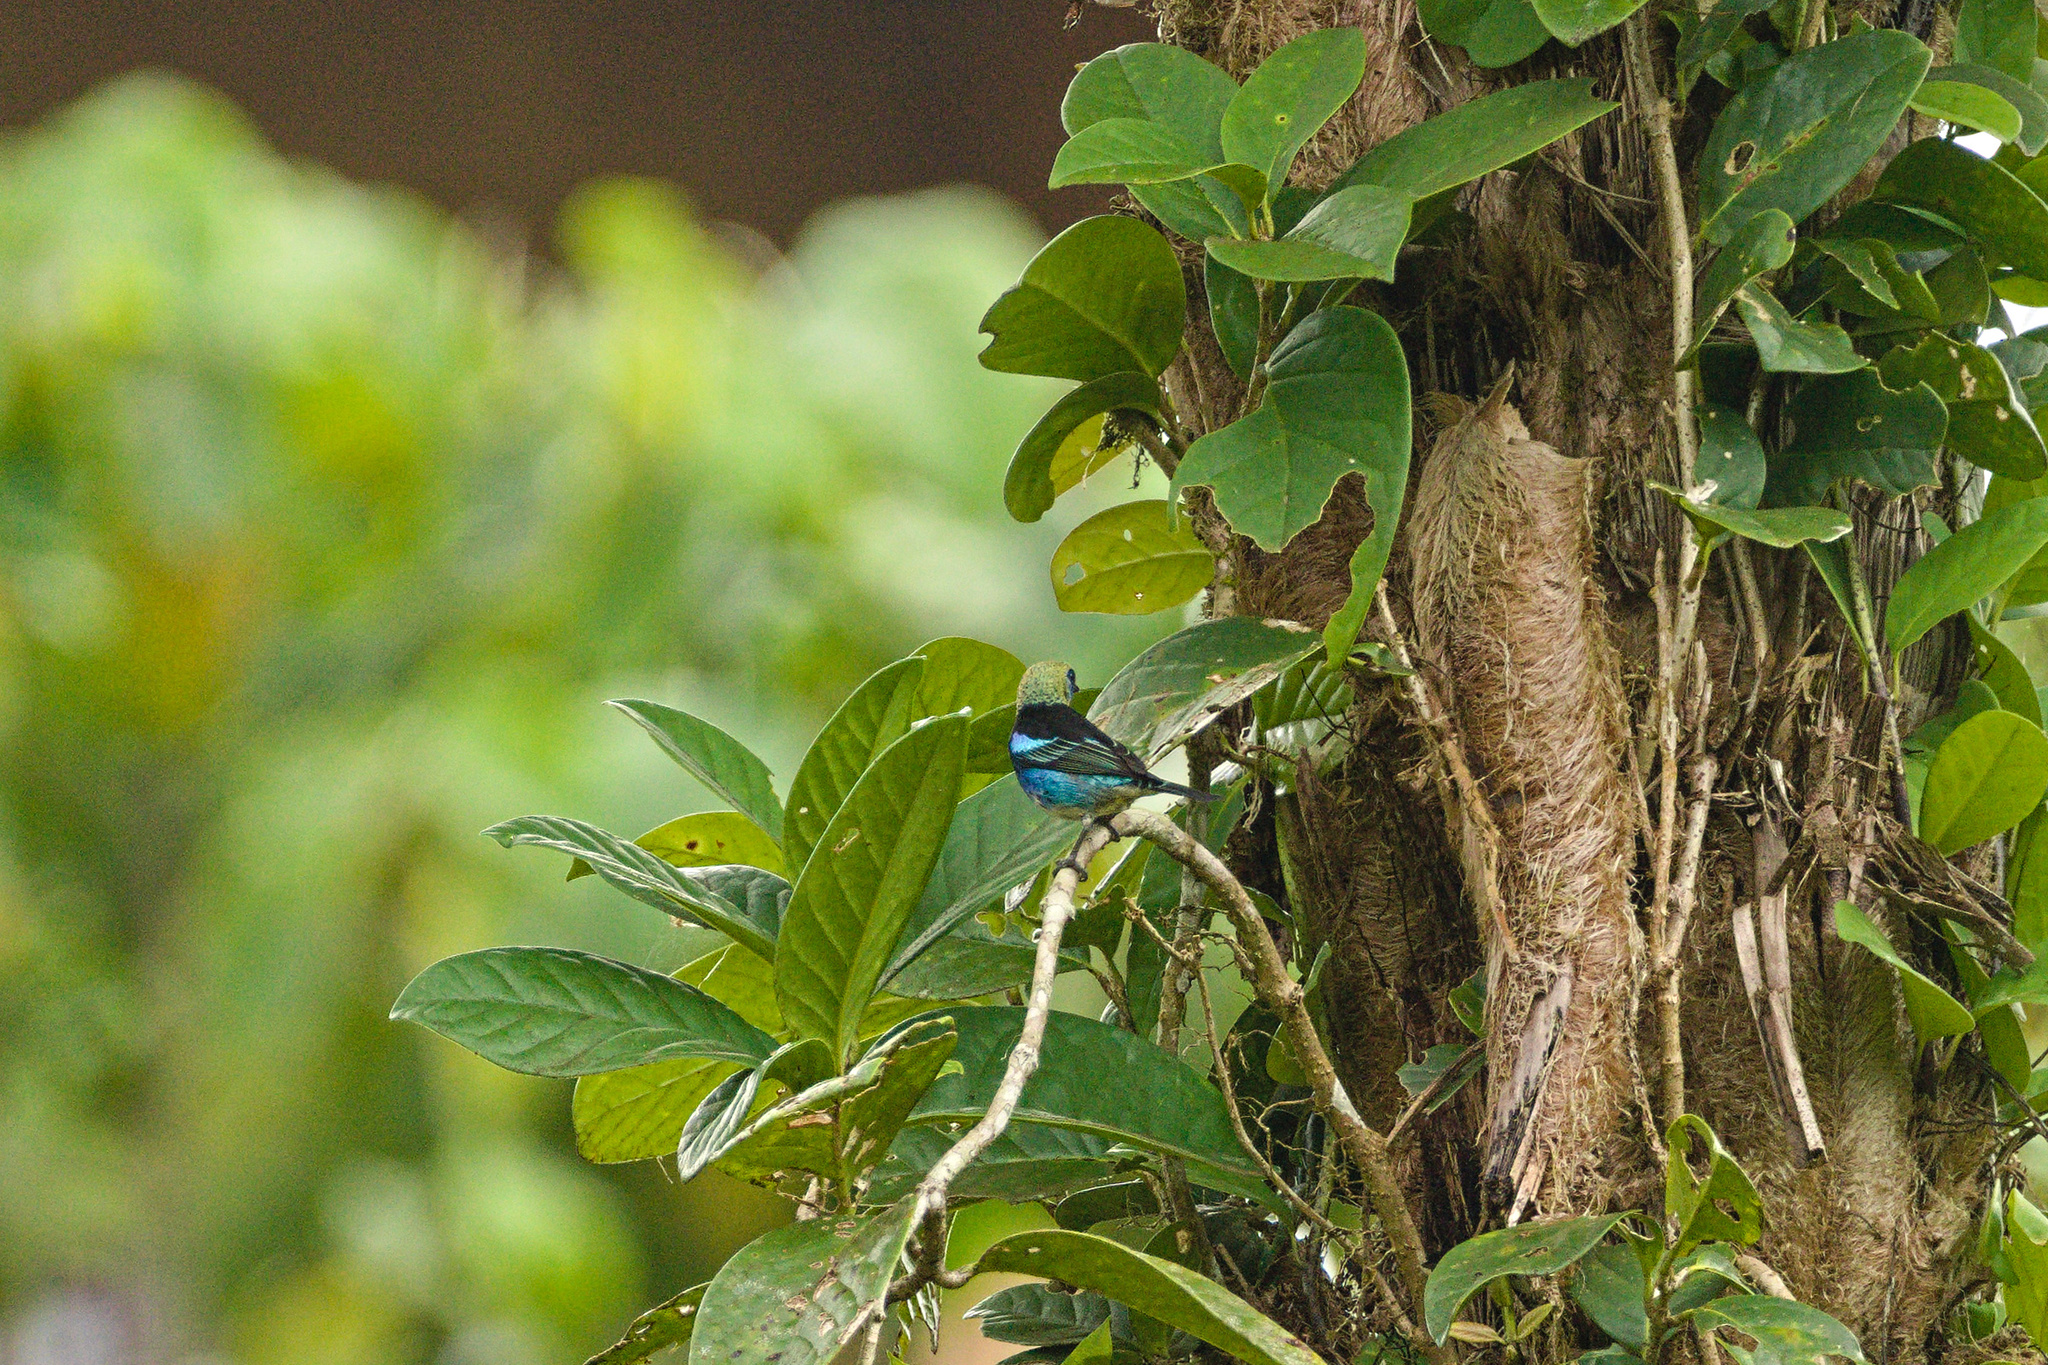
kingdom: Animalia
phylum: Chordata
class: Aves
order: Passeriformes
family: Thraupidae
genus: Stilpnia
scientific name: Stilpnia larvata
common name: Golden-hooded tanager
